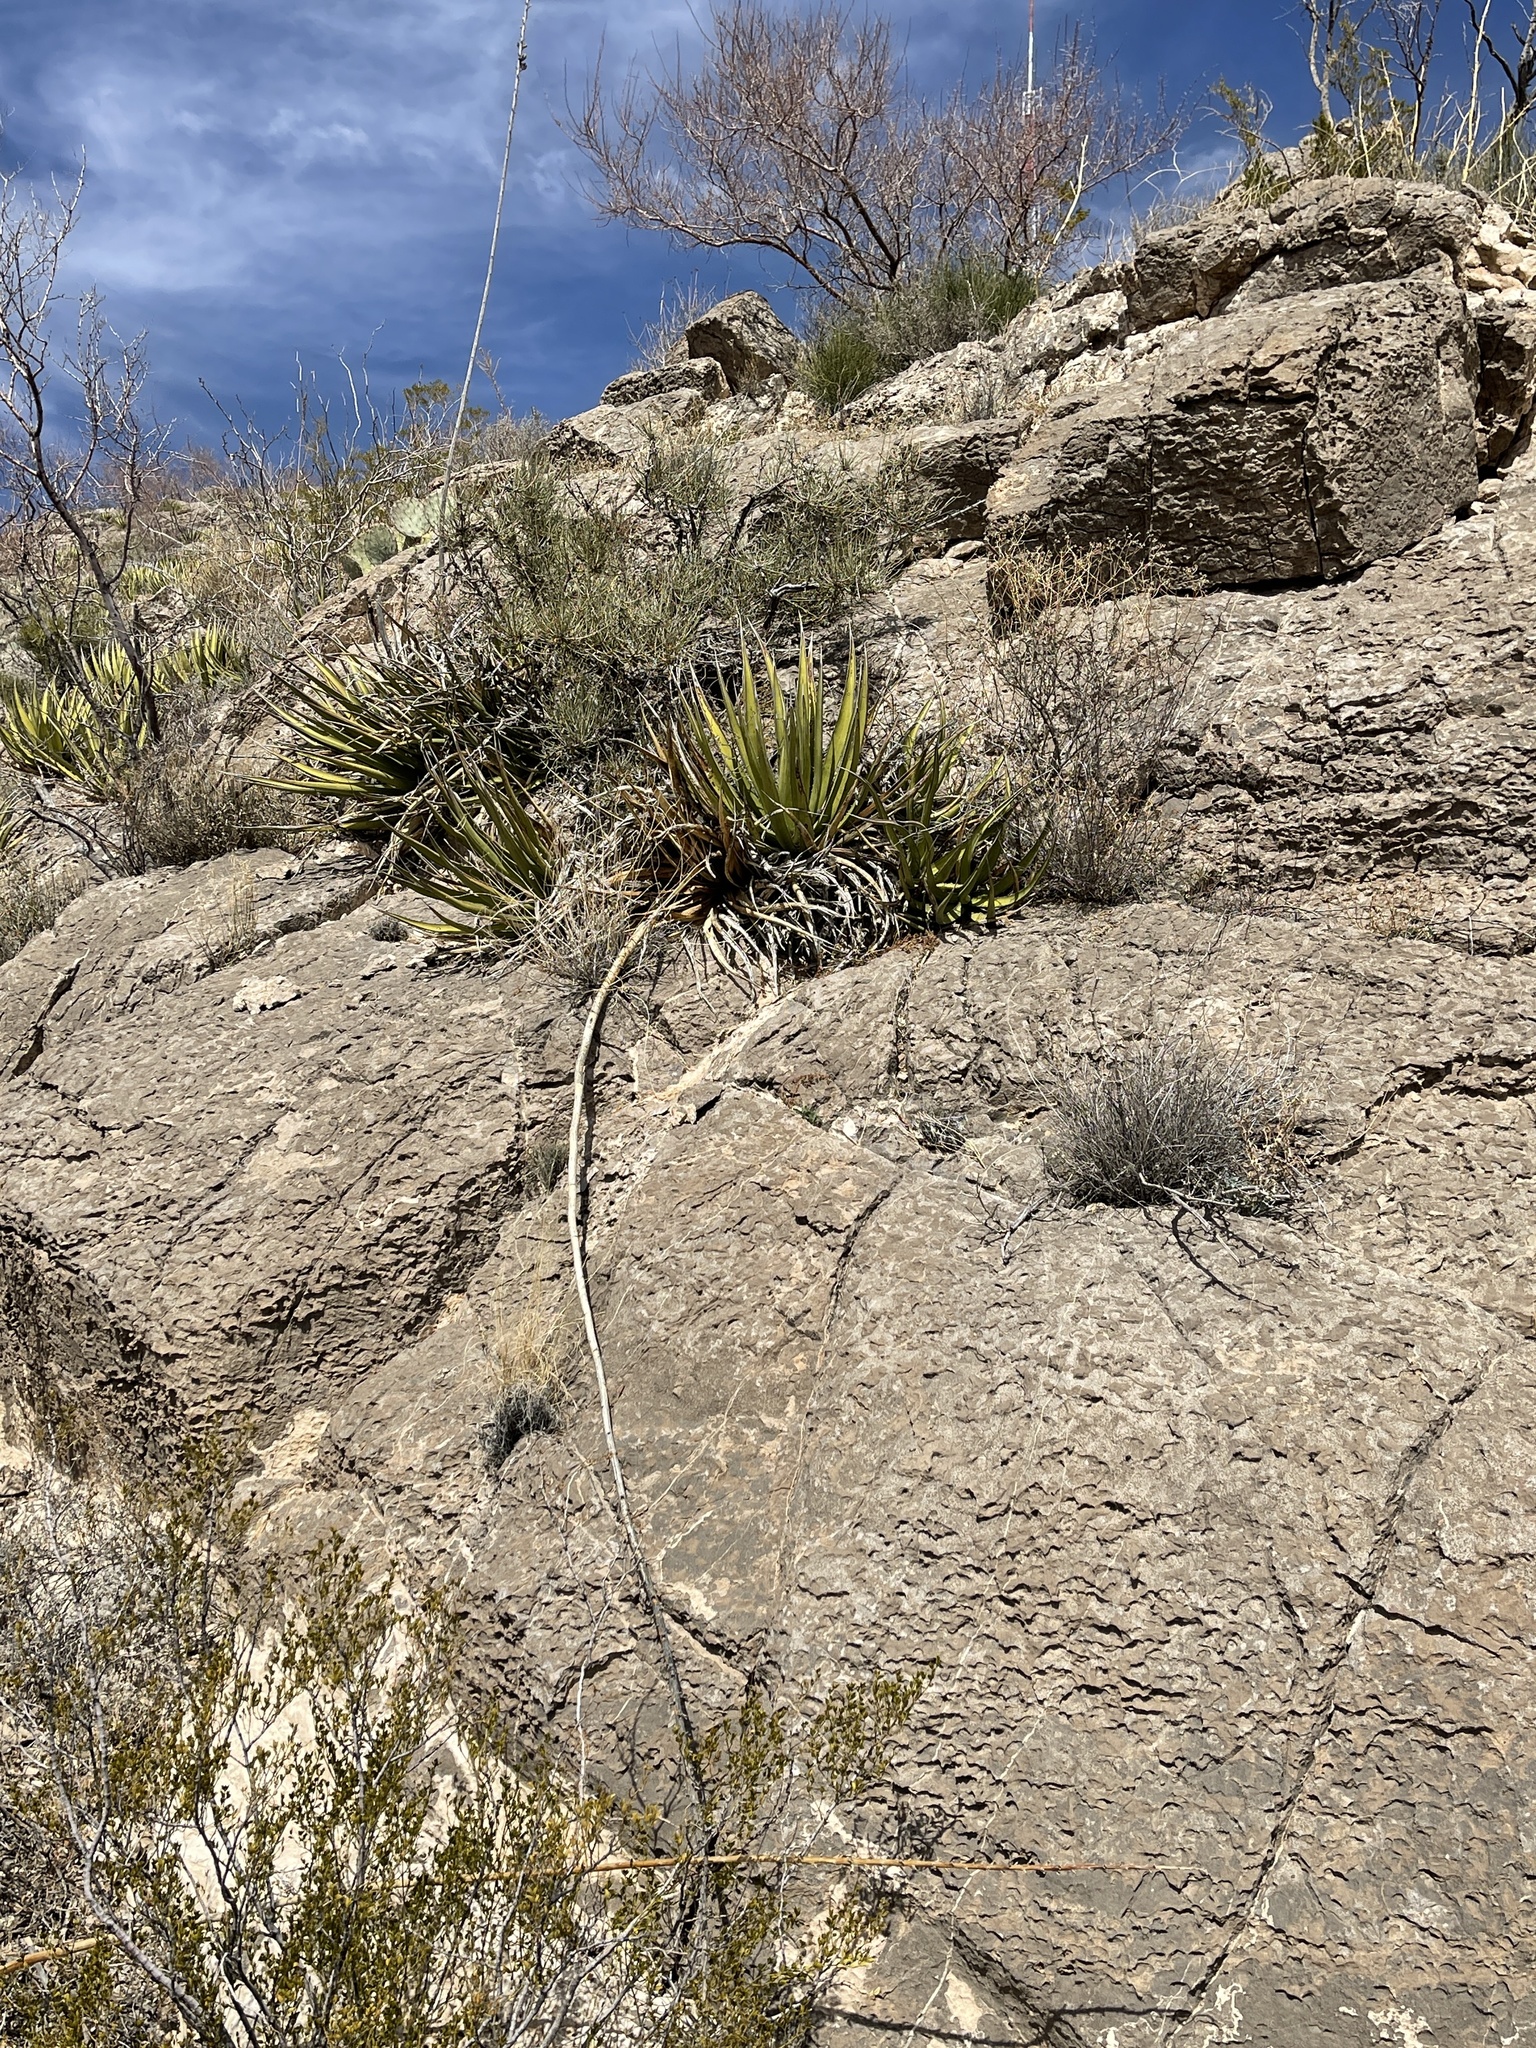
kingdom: Plantae
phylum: Tracheophyta
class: Liliopsida
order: Asparagales
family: Asparagaceae
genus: Agave
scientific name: Agave lechuguilla
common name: Lecheguilla agave
